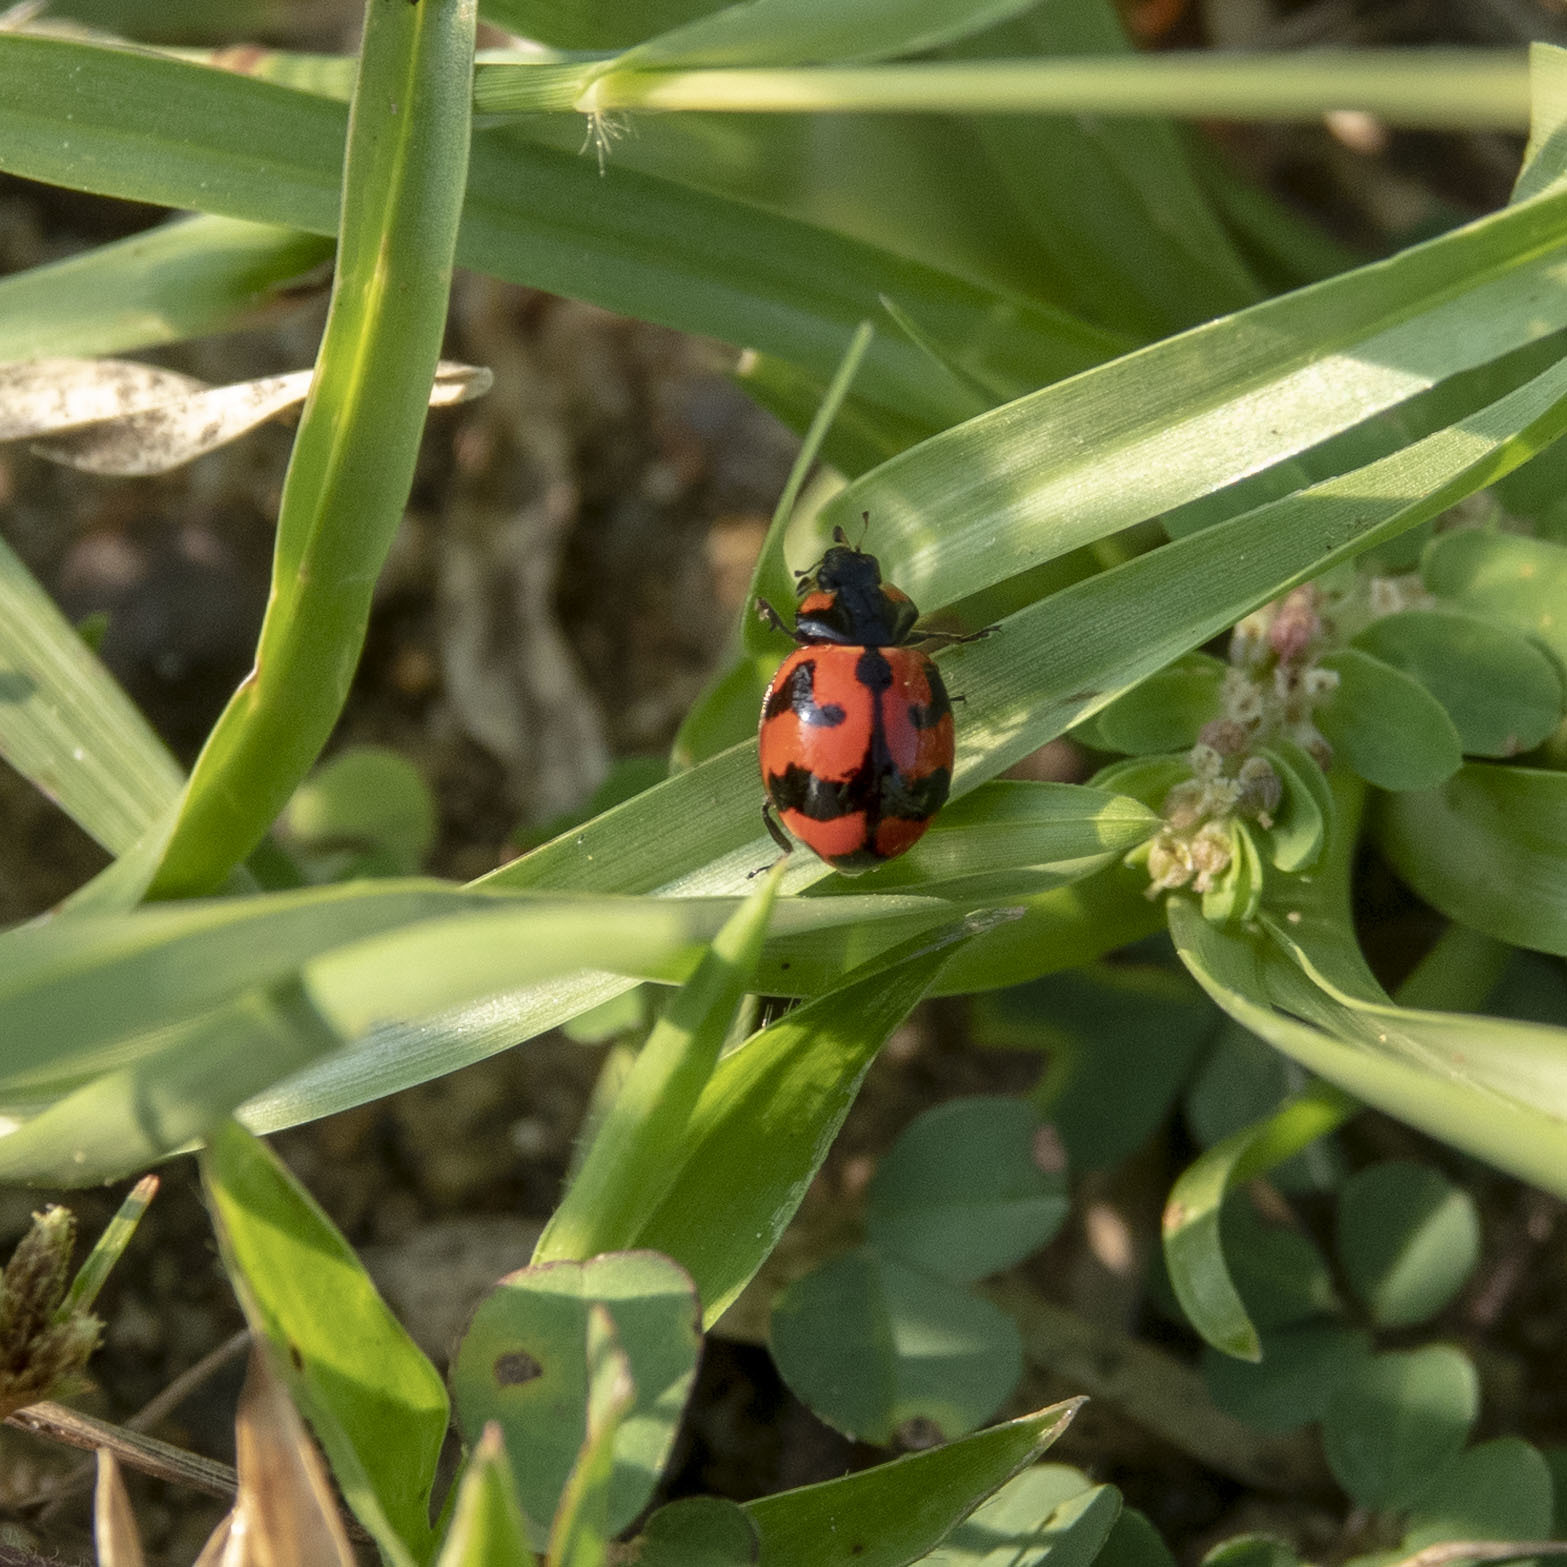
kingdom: Animalia
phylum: Arthropoda
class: Insecta
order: Coleoptera
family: Coccinellidae
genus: Coccinella
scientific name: Coccinella transversalis
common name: Transverse lady beetle
